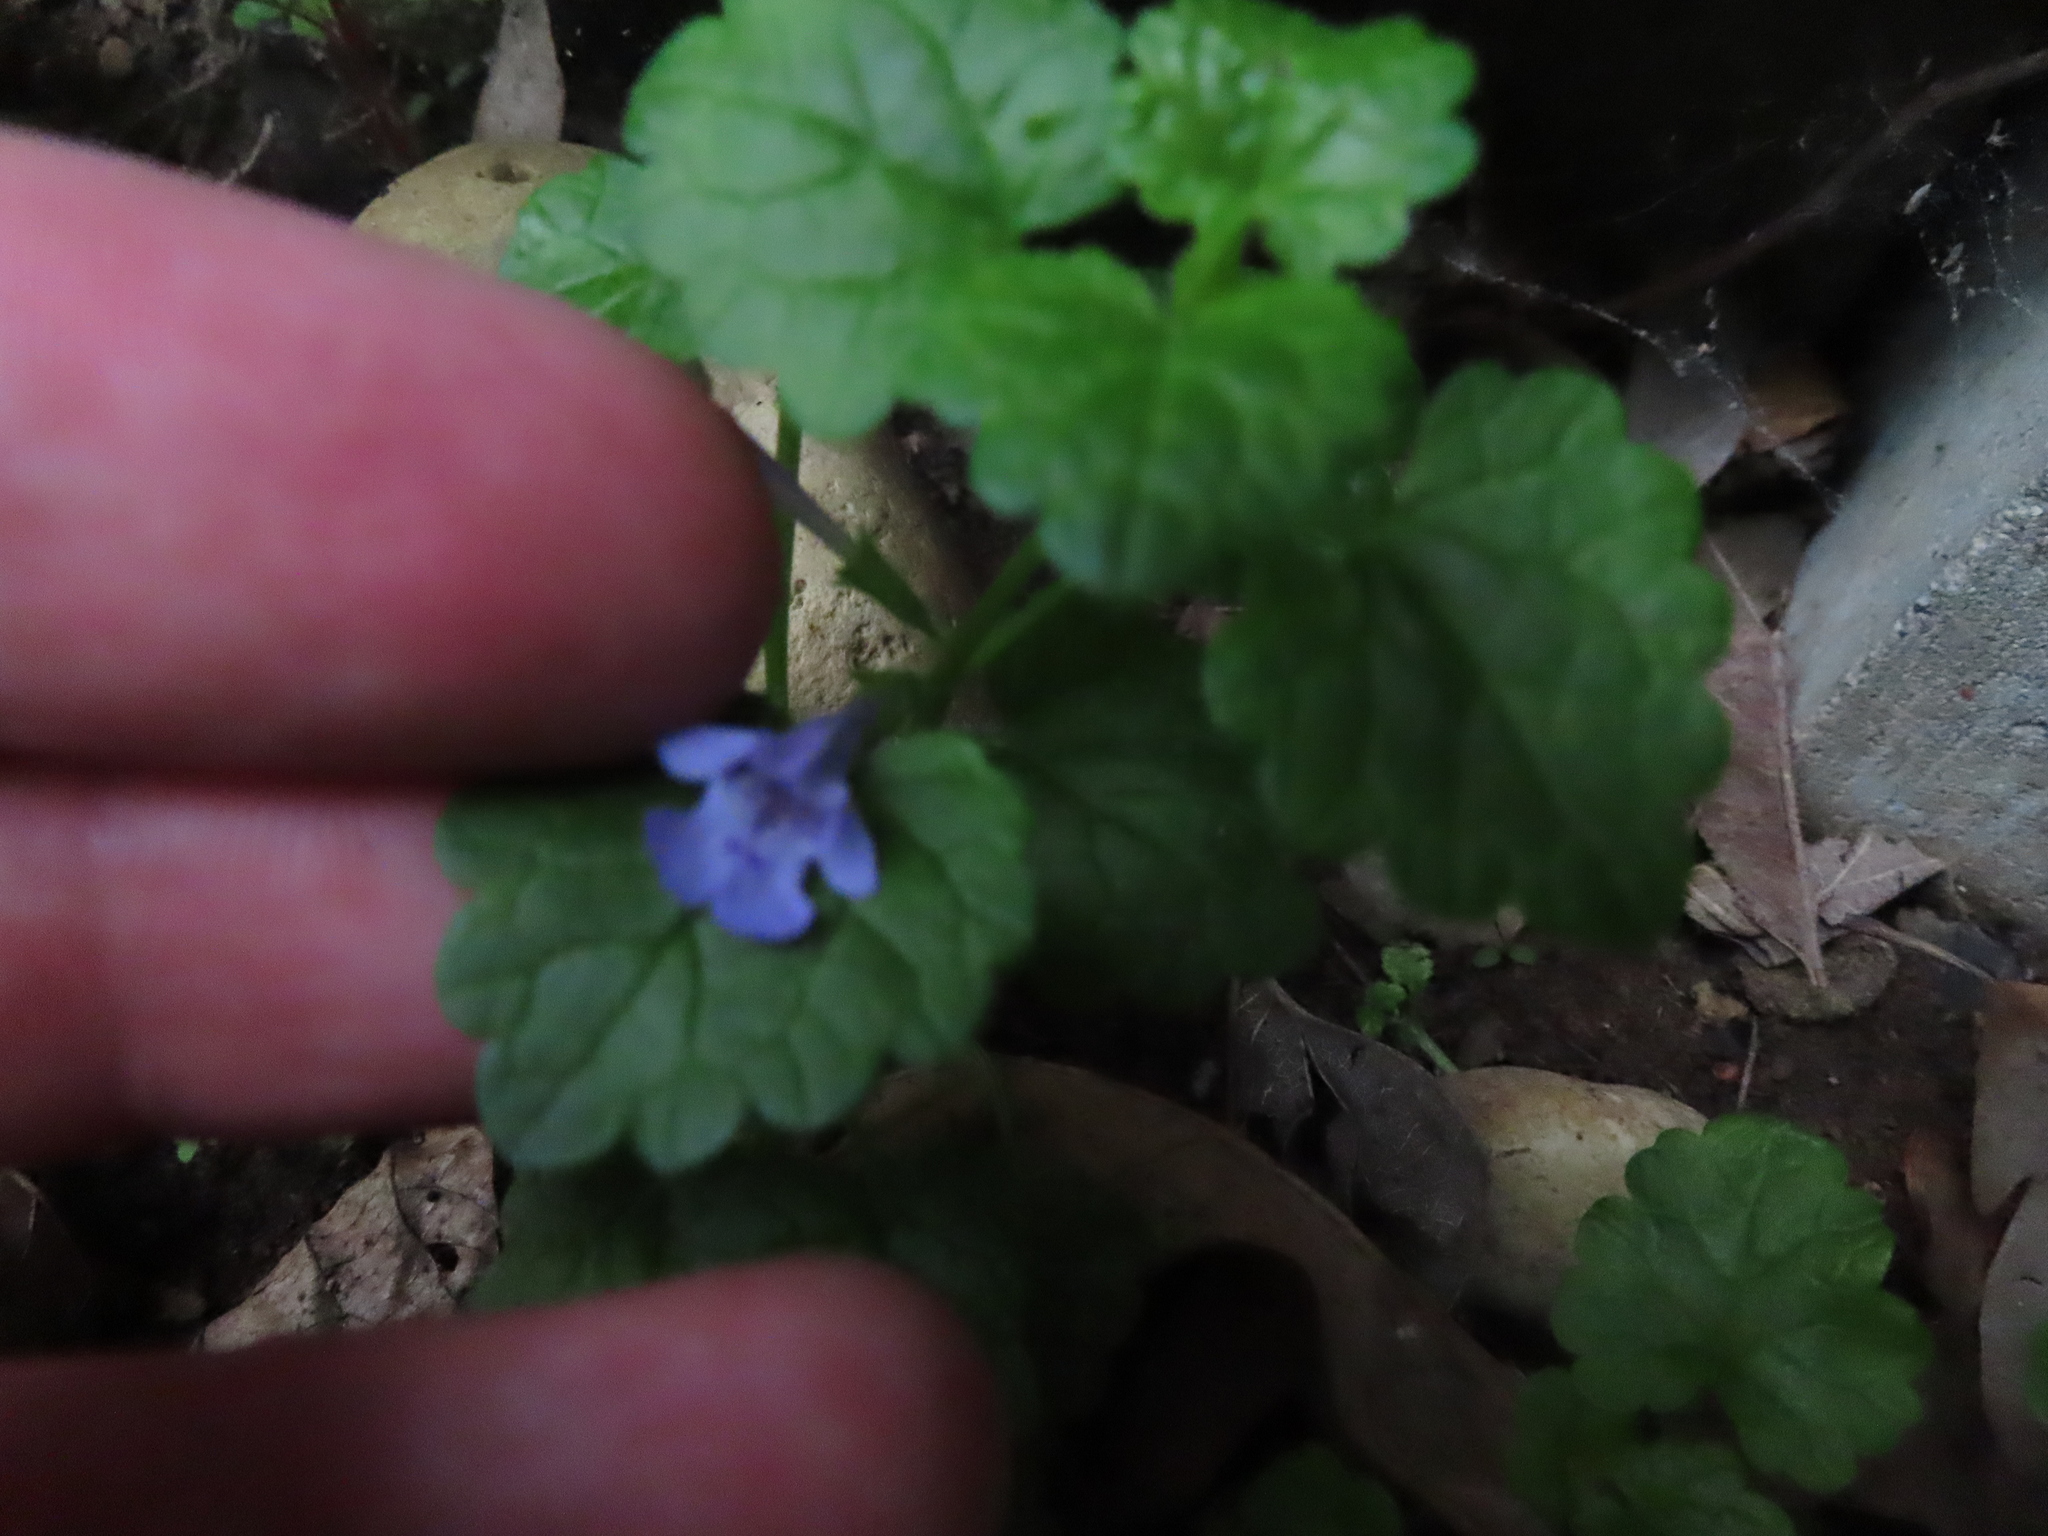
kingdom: Plantae
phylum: Tracheophyta
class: Magnoliopsida
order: Lamiales
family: Lamiaceae
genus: Glechoma
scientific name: Glechoma hederacea
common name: Ground ivy
